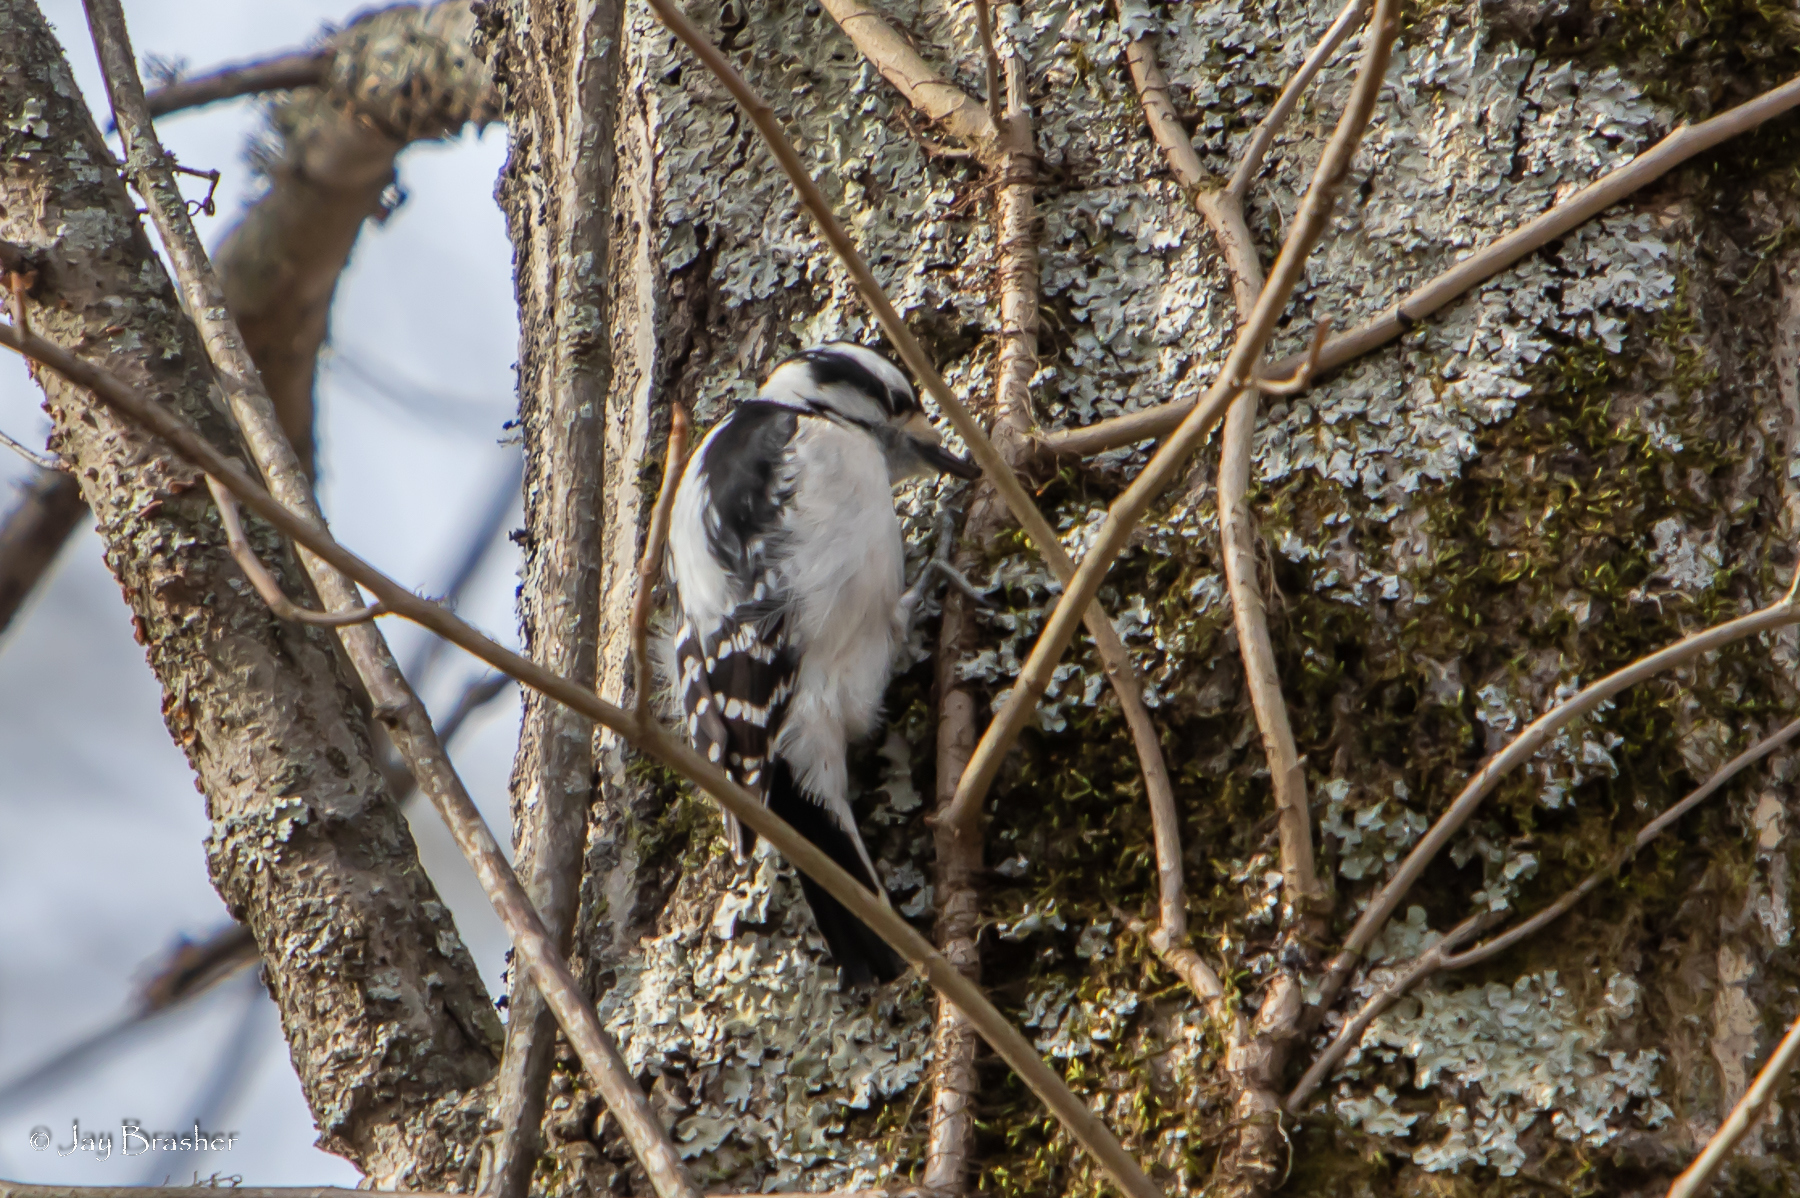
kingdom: Animalia
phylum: Chordata
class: Aves
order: Piciformes
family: Picidae
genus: Dryobates
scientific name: Dryobates pubescens
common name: Downy woodpecker
